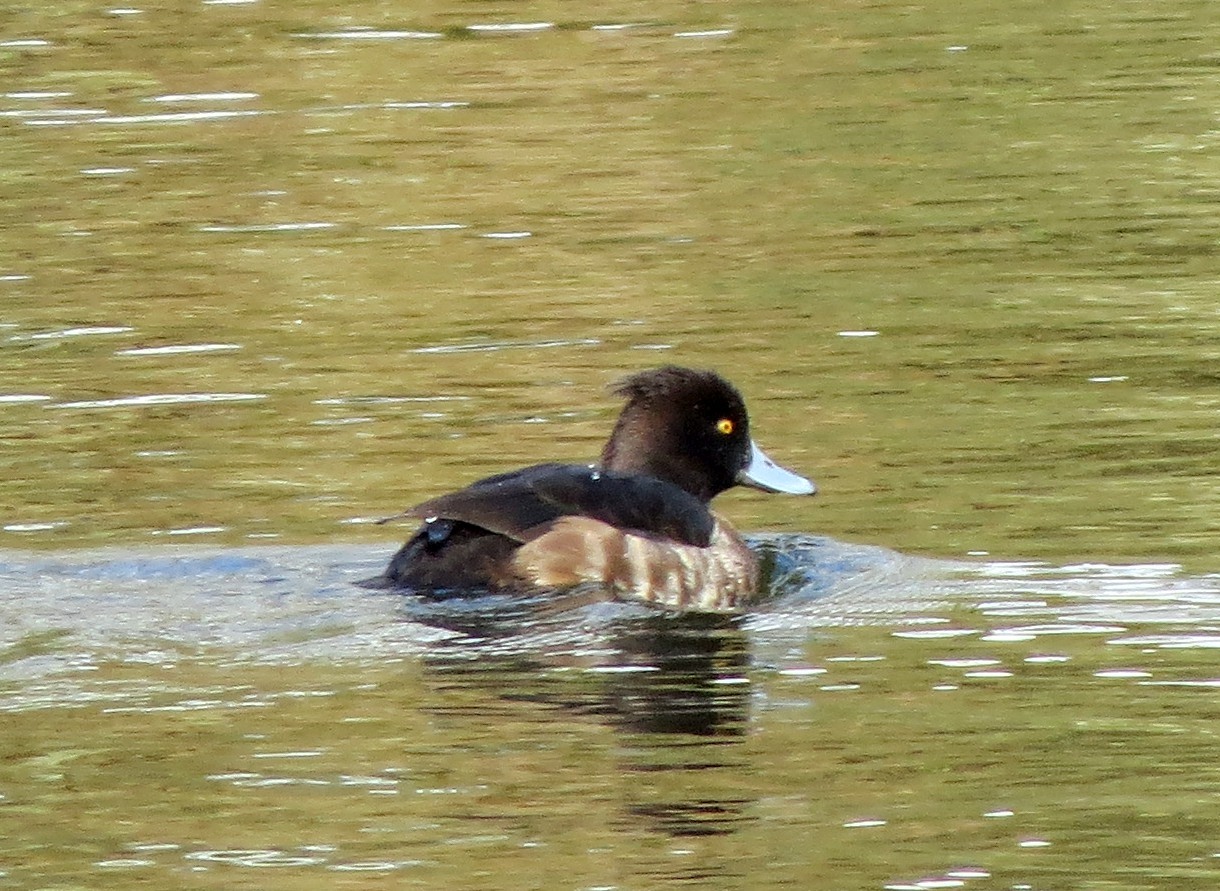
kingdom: Animalia
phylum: Chordata
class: Aves
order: Anseriformes
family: Anatidae
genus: Aythya
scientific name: Aythya fuligula
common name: Tufted duck
